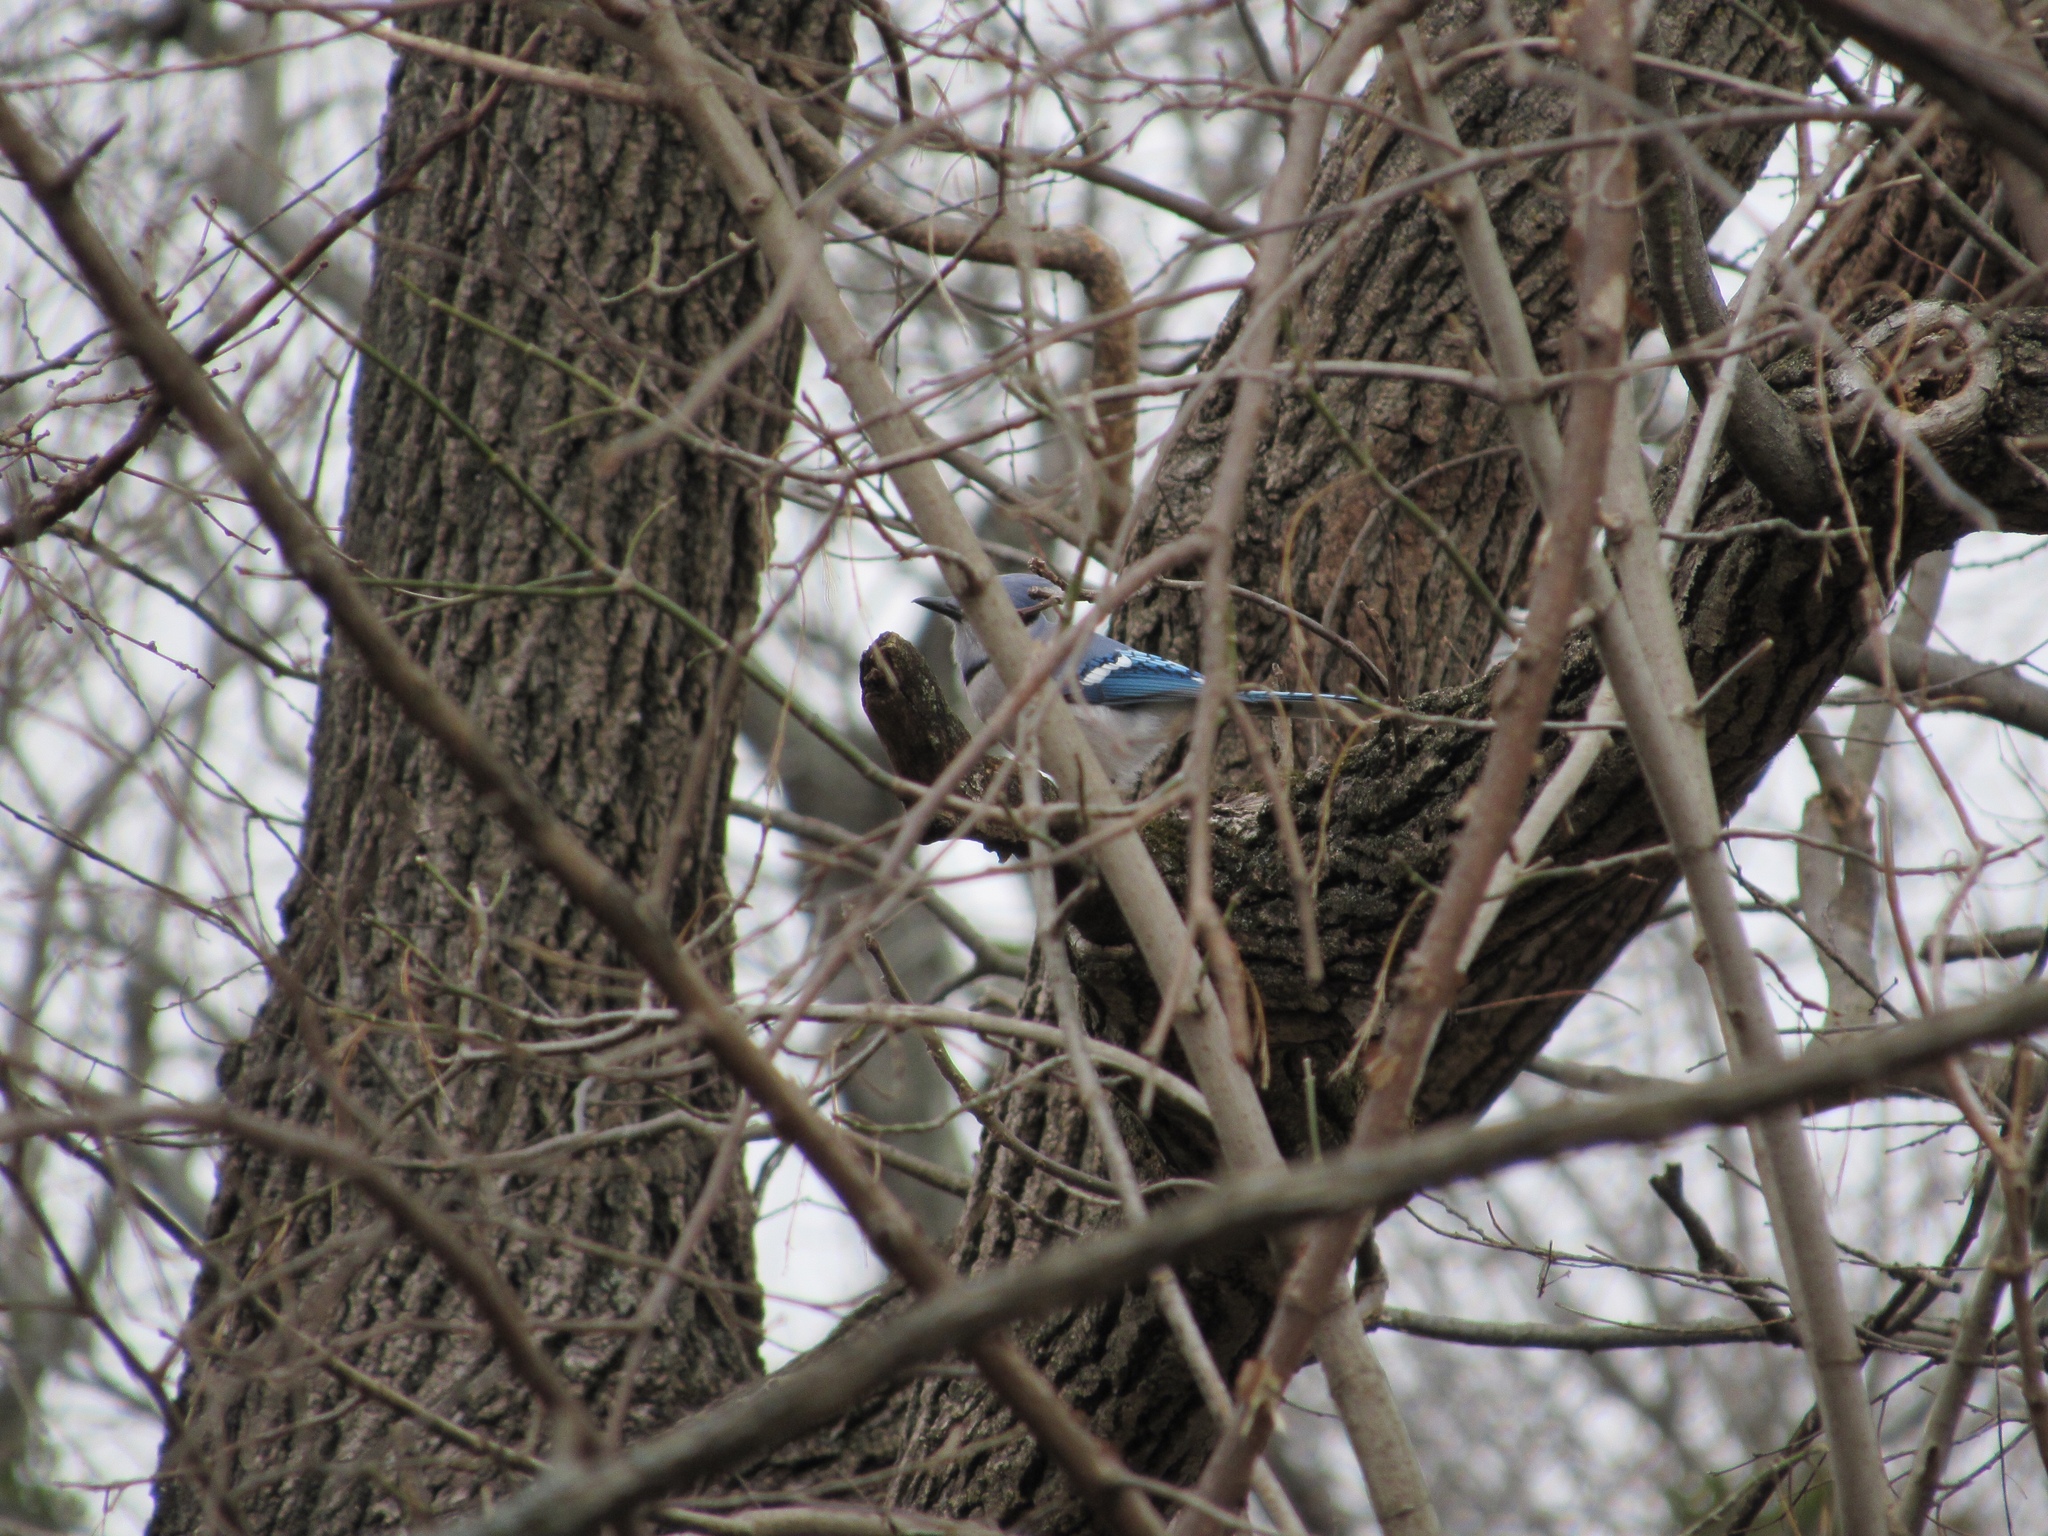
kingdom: Animalia
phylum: Chordata
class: Aves
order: Passeriformes
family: Corvidae
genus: Cyanocitta
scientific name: Cyanocitta cristata
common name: Blue jay
